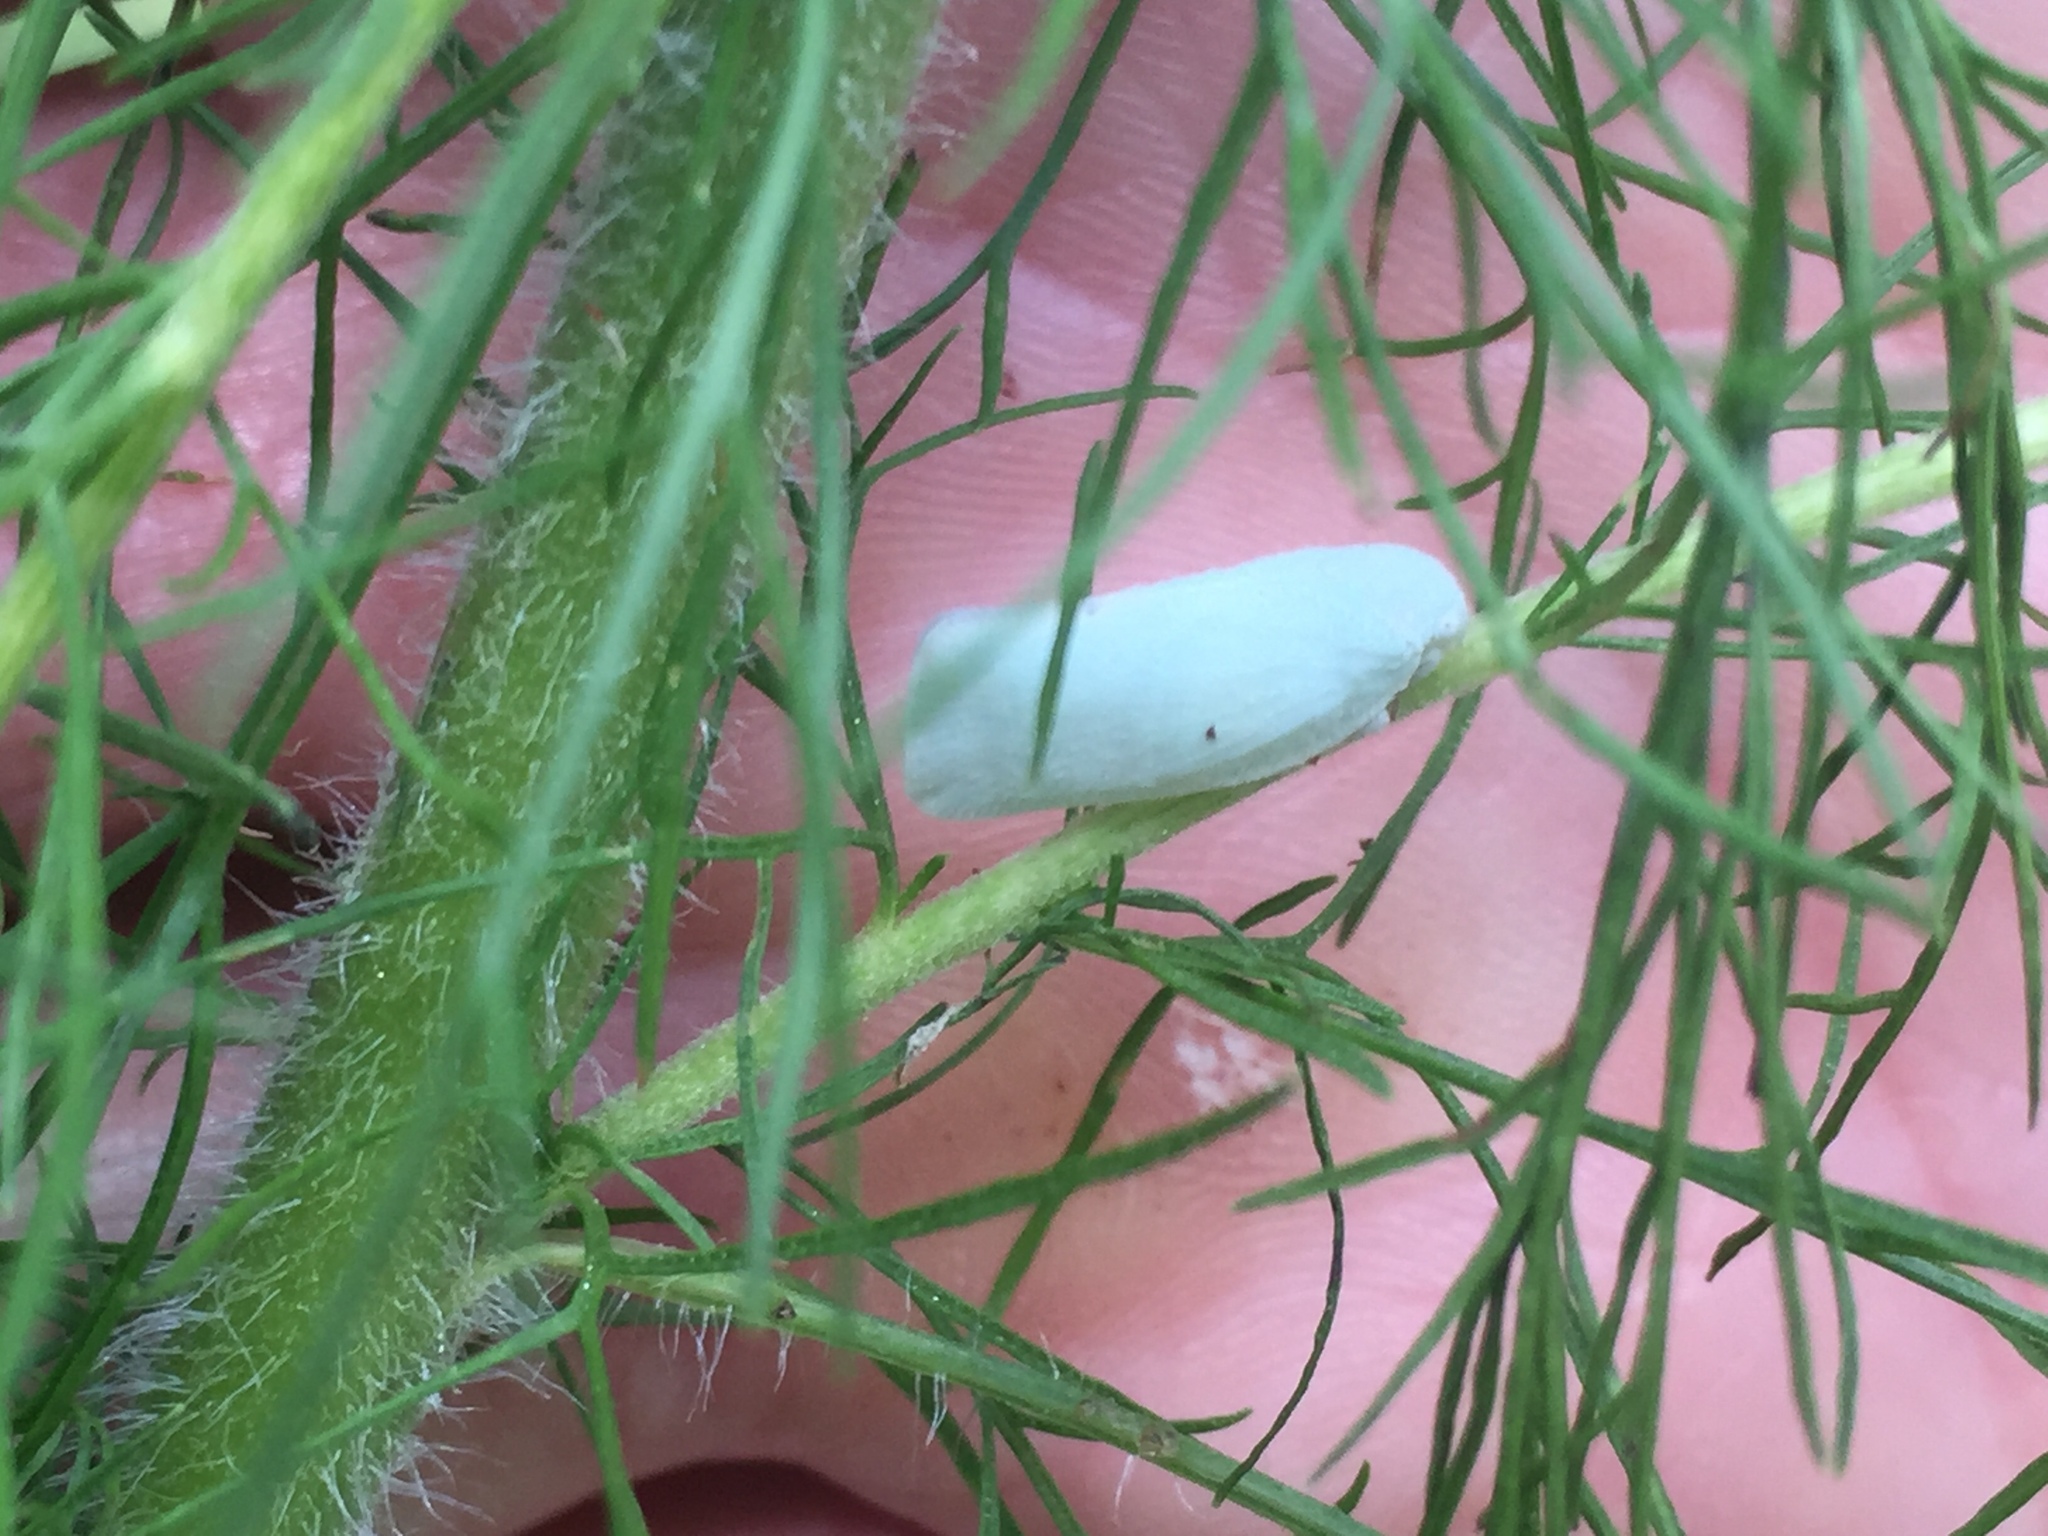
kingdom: Animalia
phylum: Arthropoda
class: Insecta
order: Hemiptera
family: Flatidae
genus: Flatormenis
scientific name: Flatormenis proxima
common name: Northern flatid planthopper
